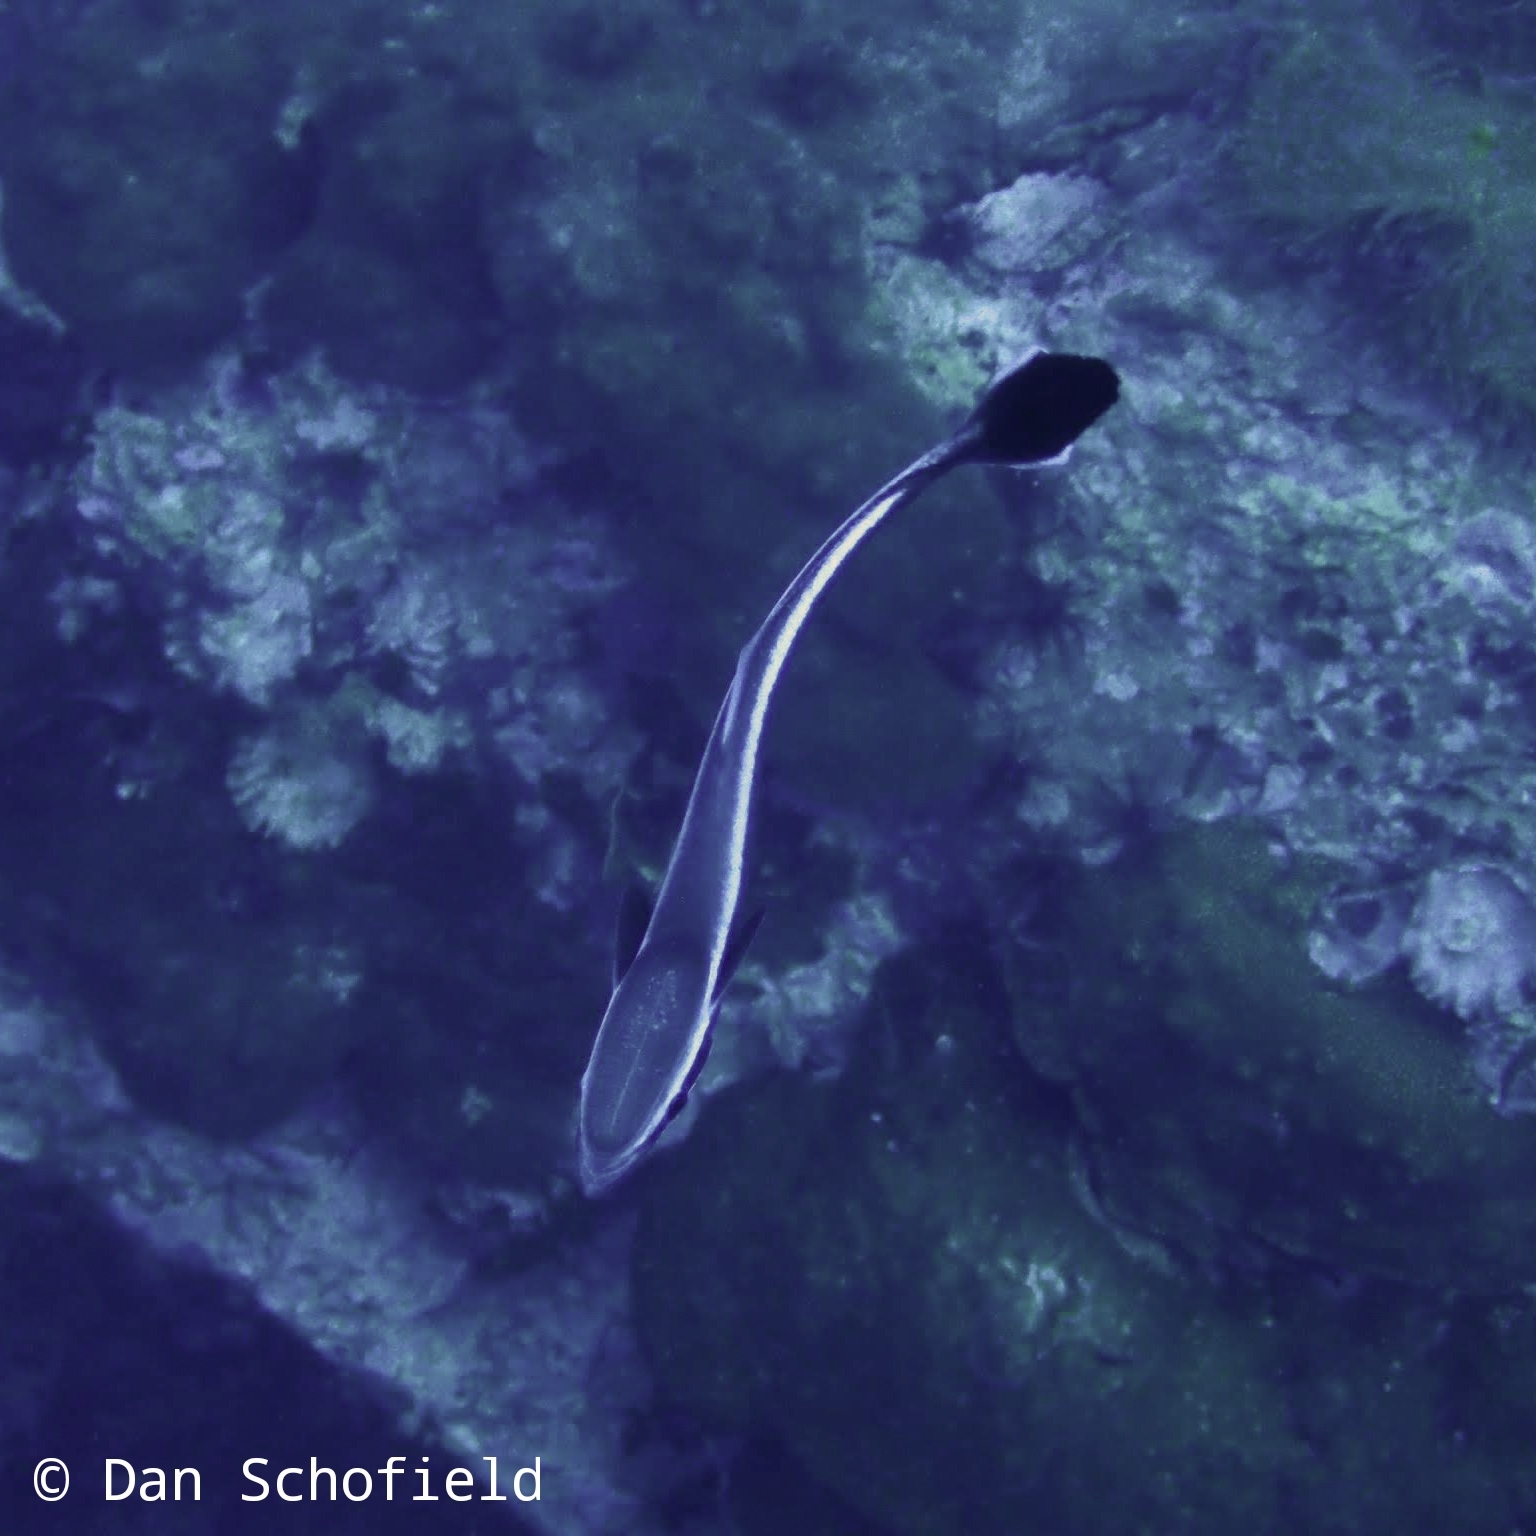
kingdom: Animalia
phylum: Chordata
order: Perciformes
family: Echeneidae
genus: Echeneis
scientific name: Echeneis naucrates
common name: Sharksucker
